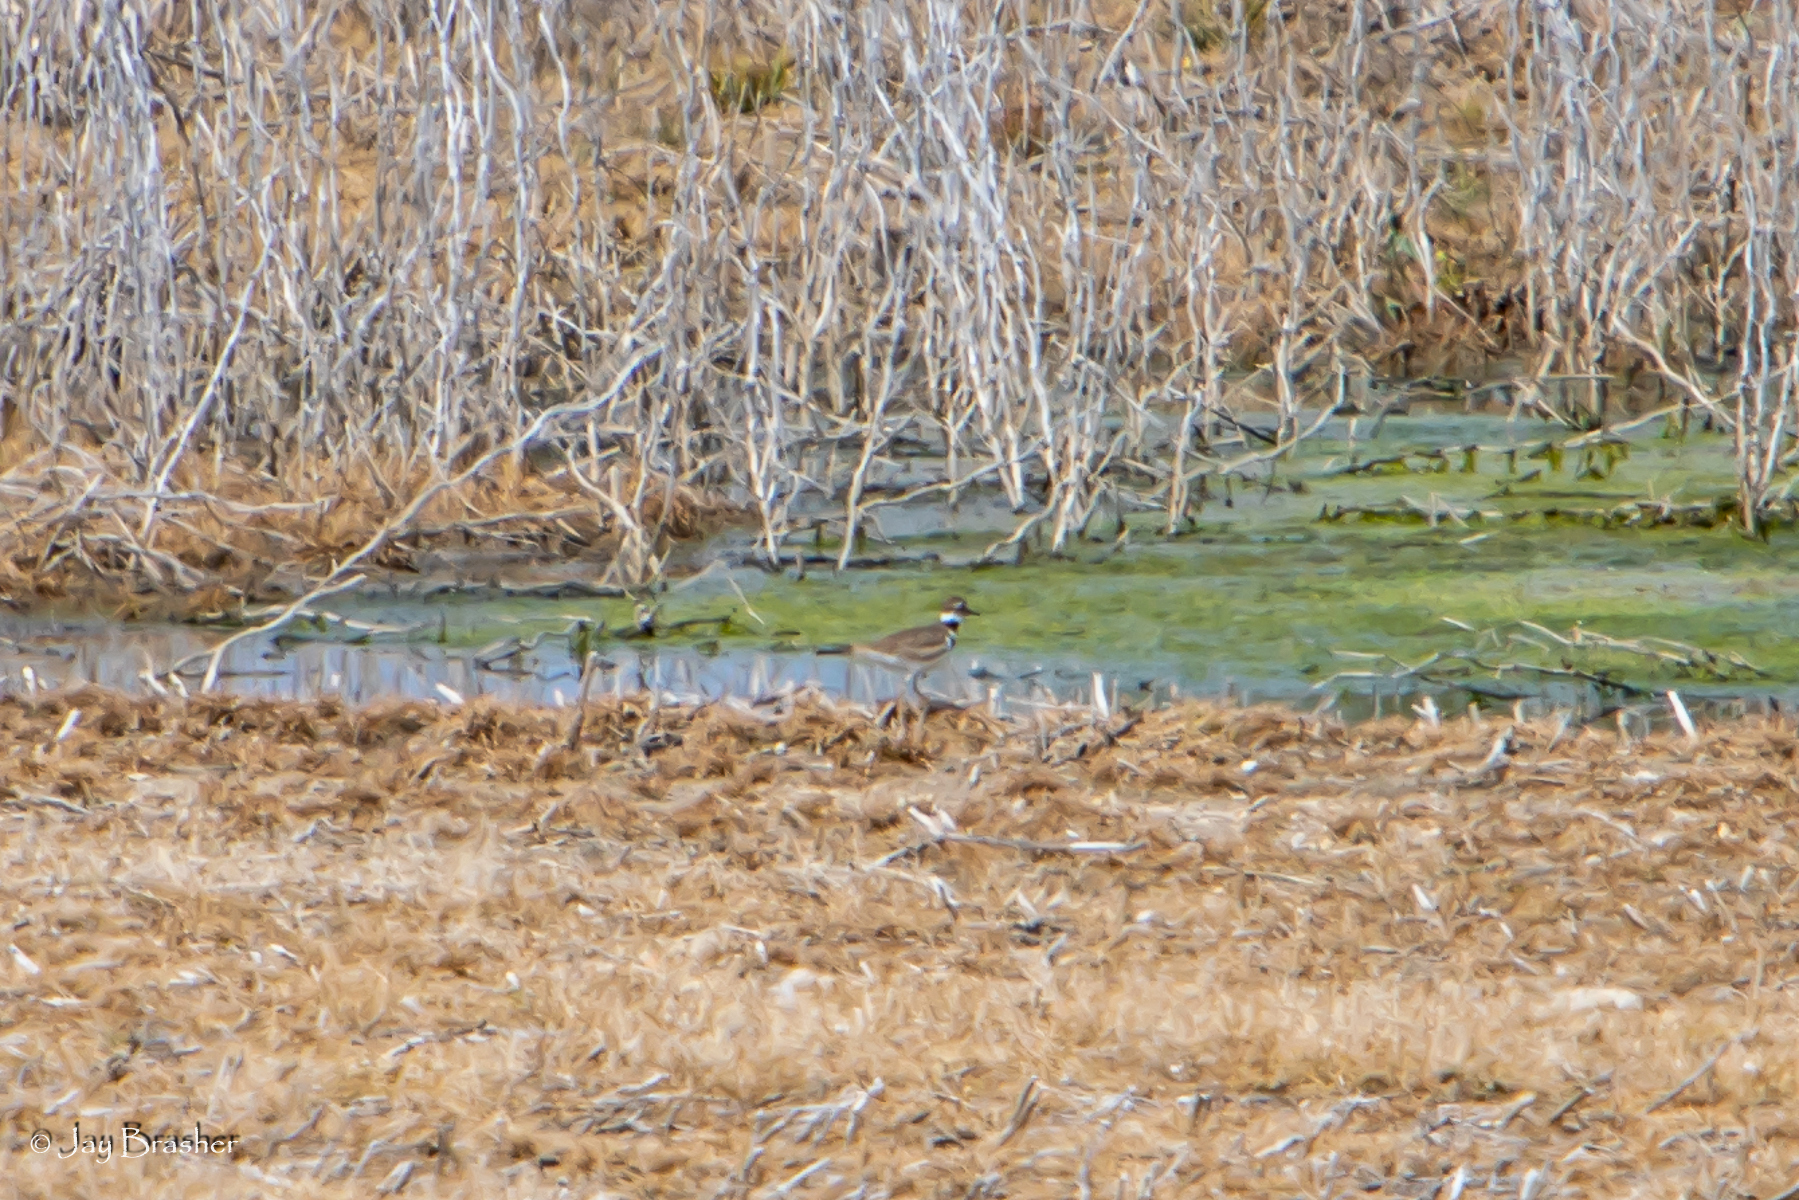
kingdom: Animalia
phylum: Chordata
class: Aves
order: Charadriiformes
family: Charadriidae
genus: Charadrius
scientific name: Charadrius vociferus
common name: Killdeer
